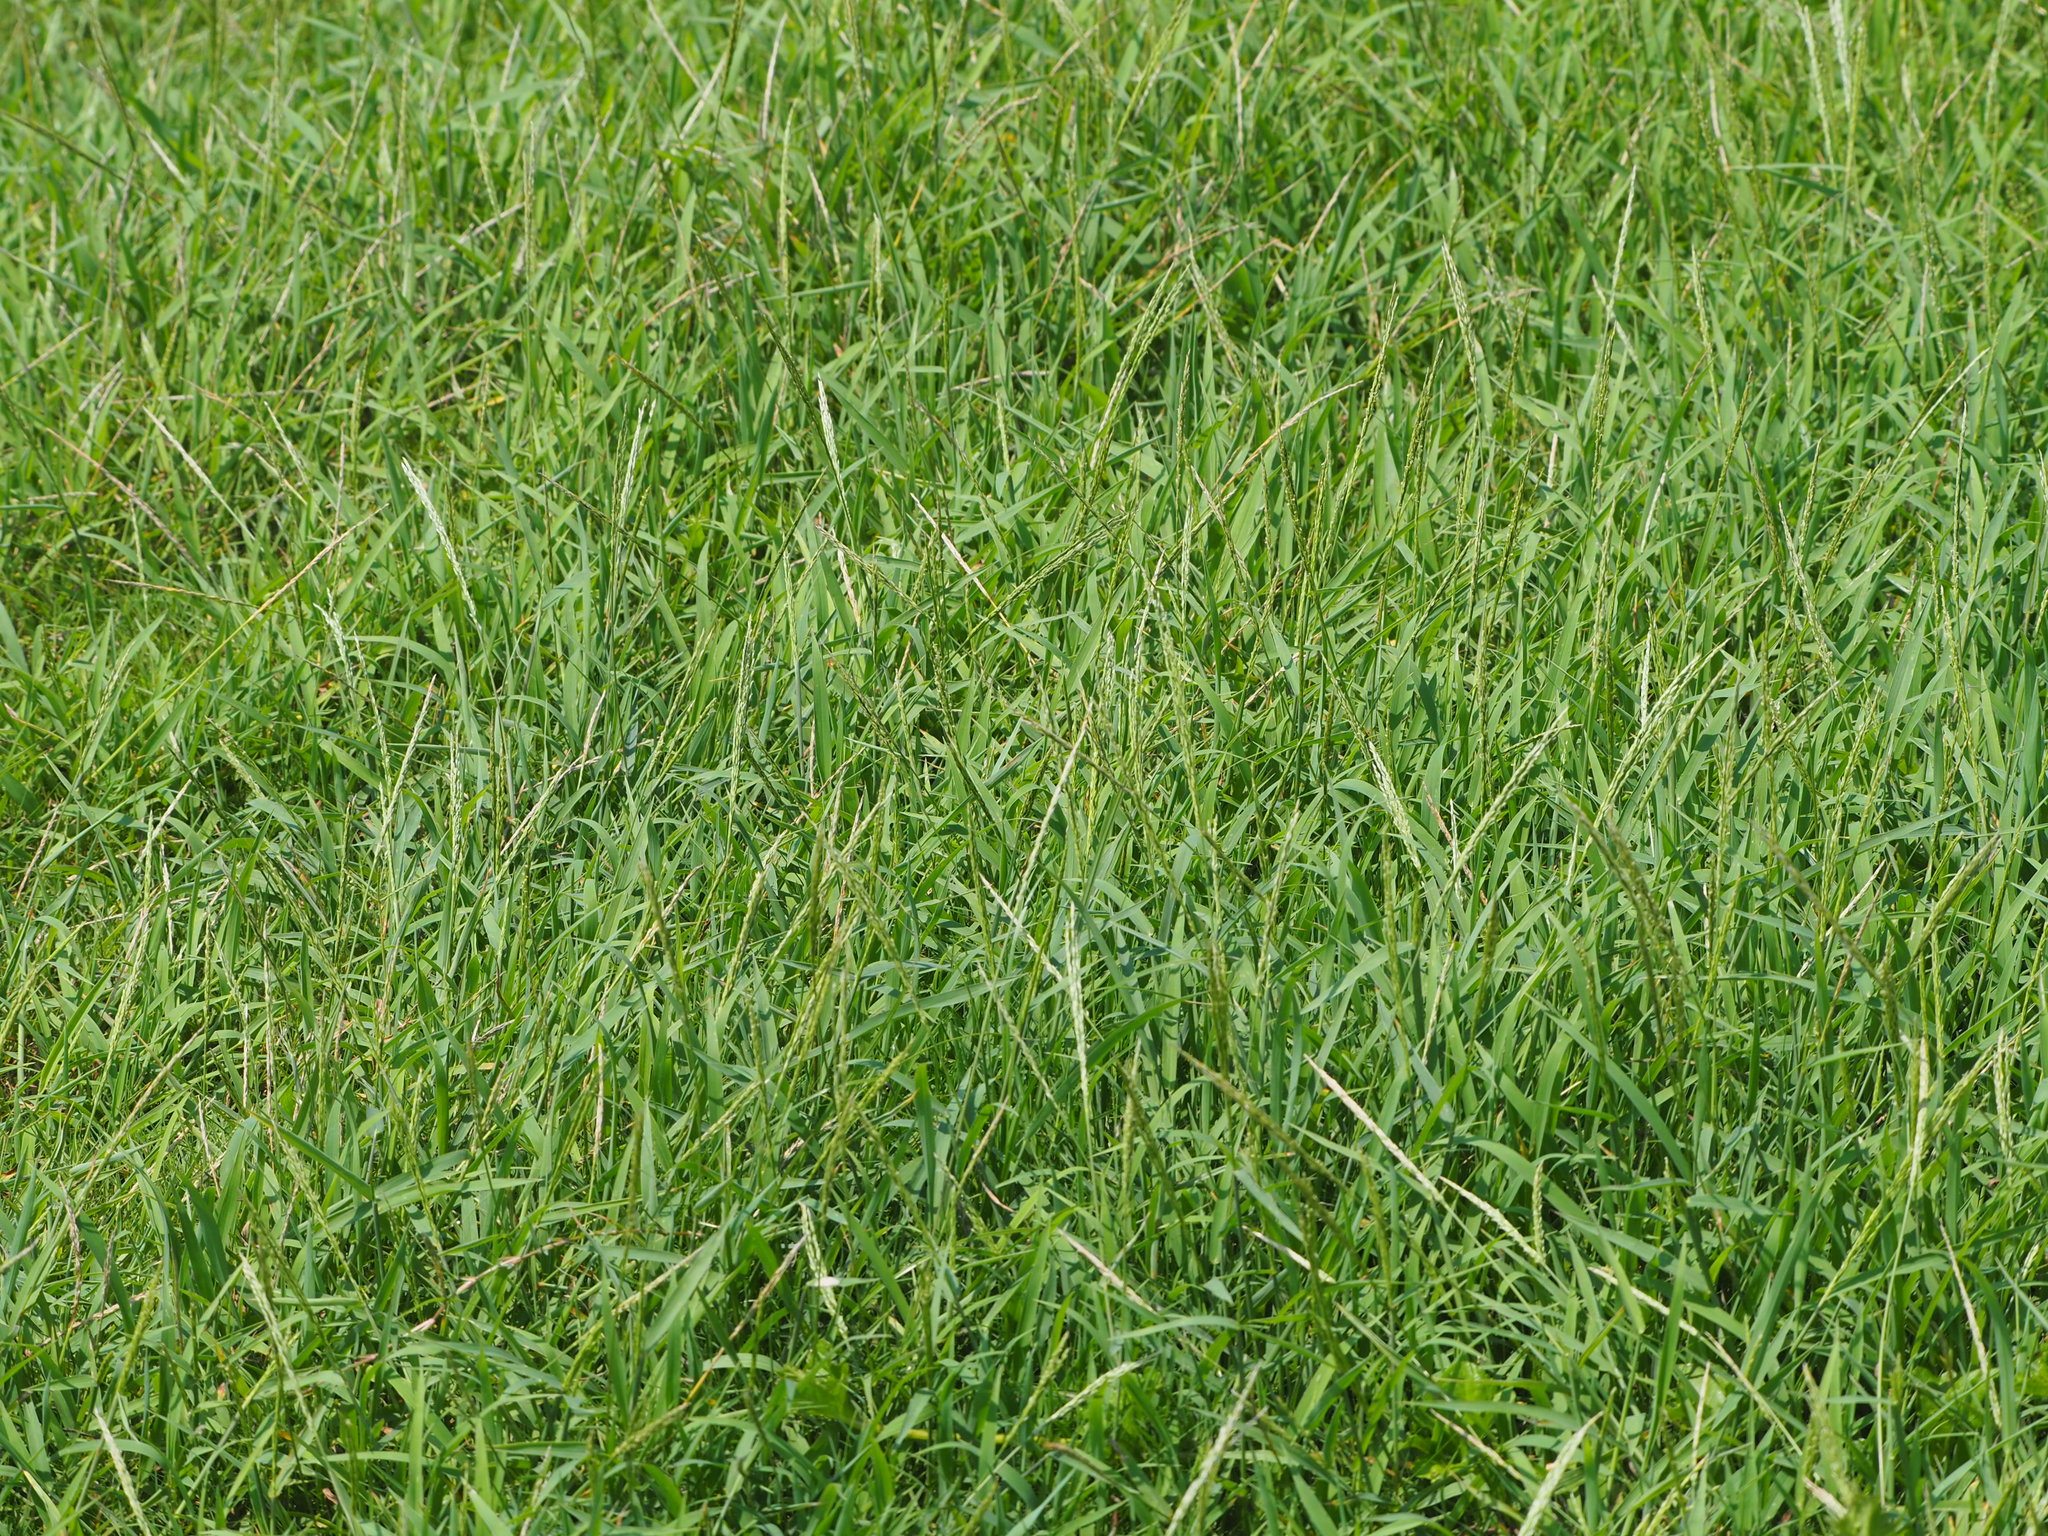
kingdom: Plantae
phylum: Tracheophyta
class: Liliopsida
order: Poales
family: Poaceae
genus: Digitaria
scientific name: Digitaria ciliaris
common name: Tropical finger-grass
